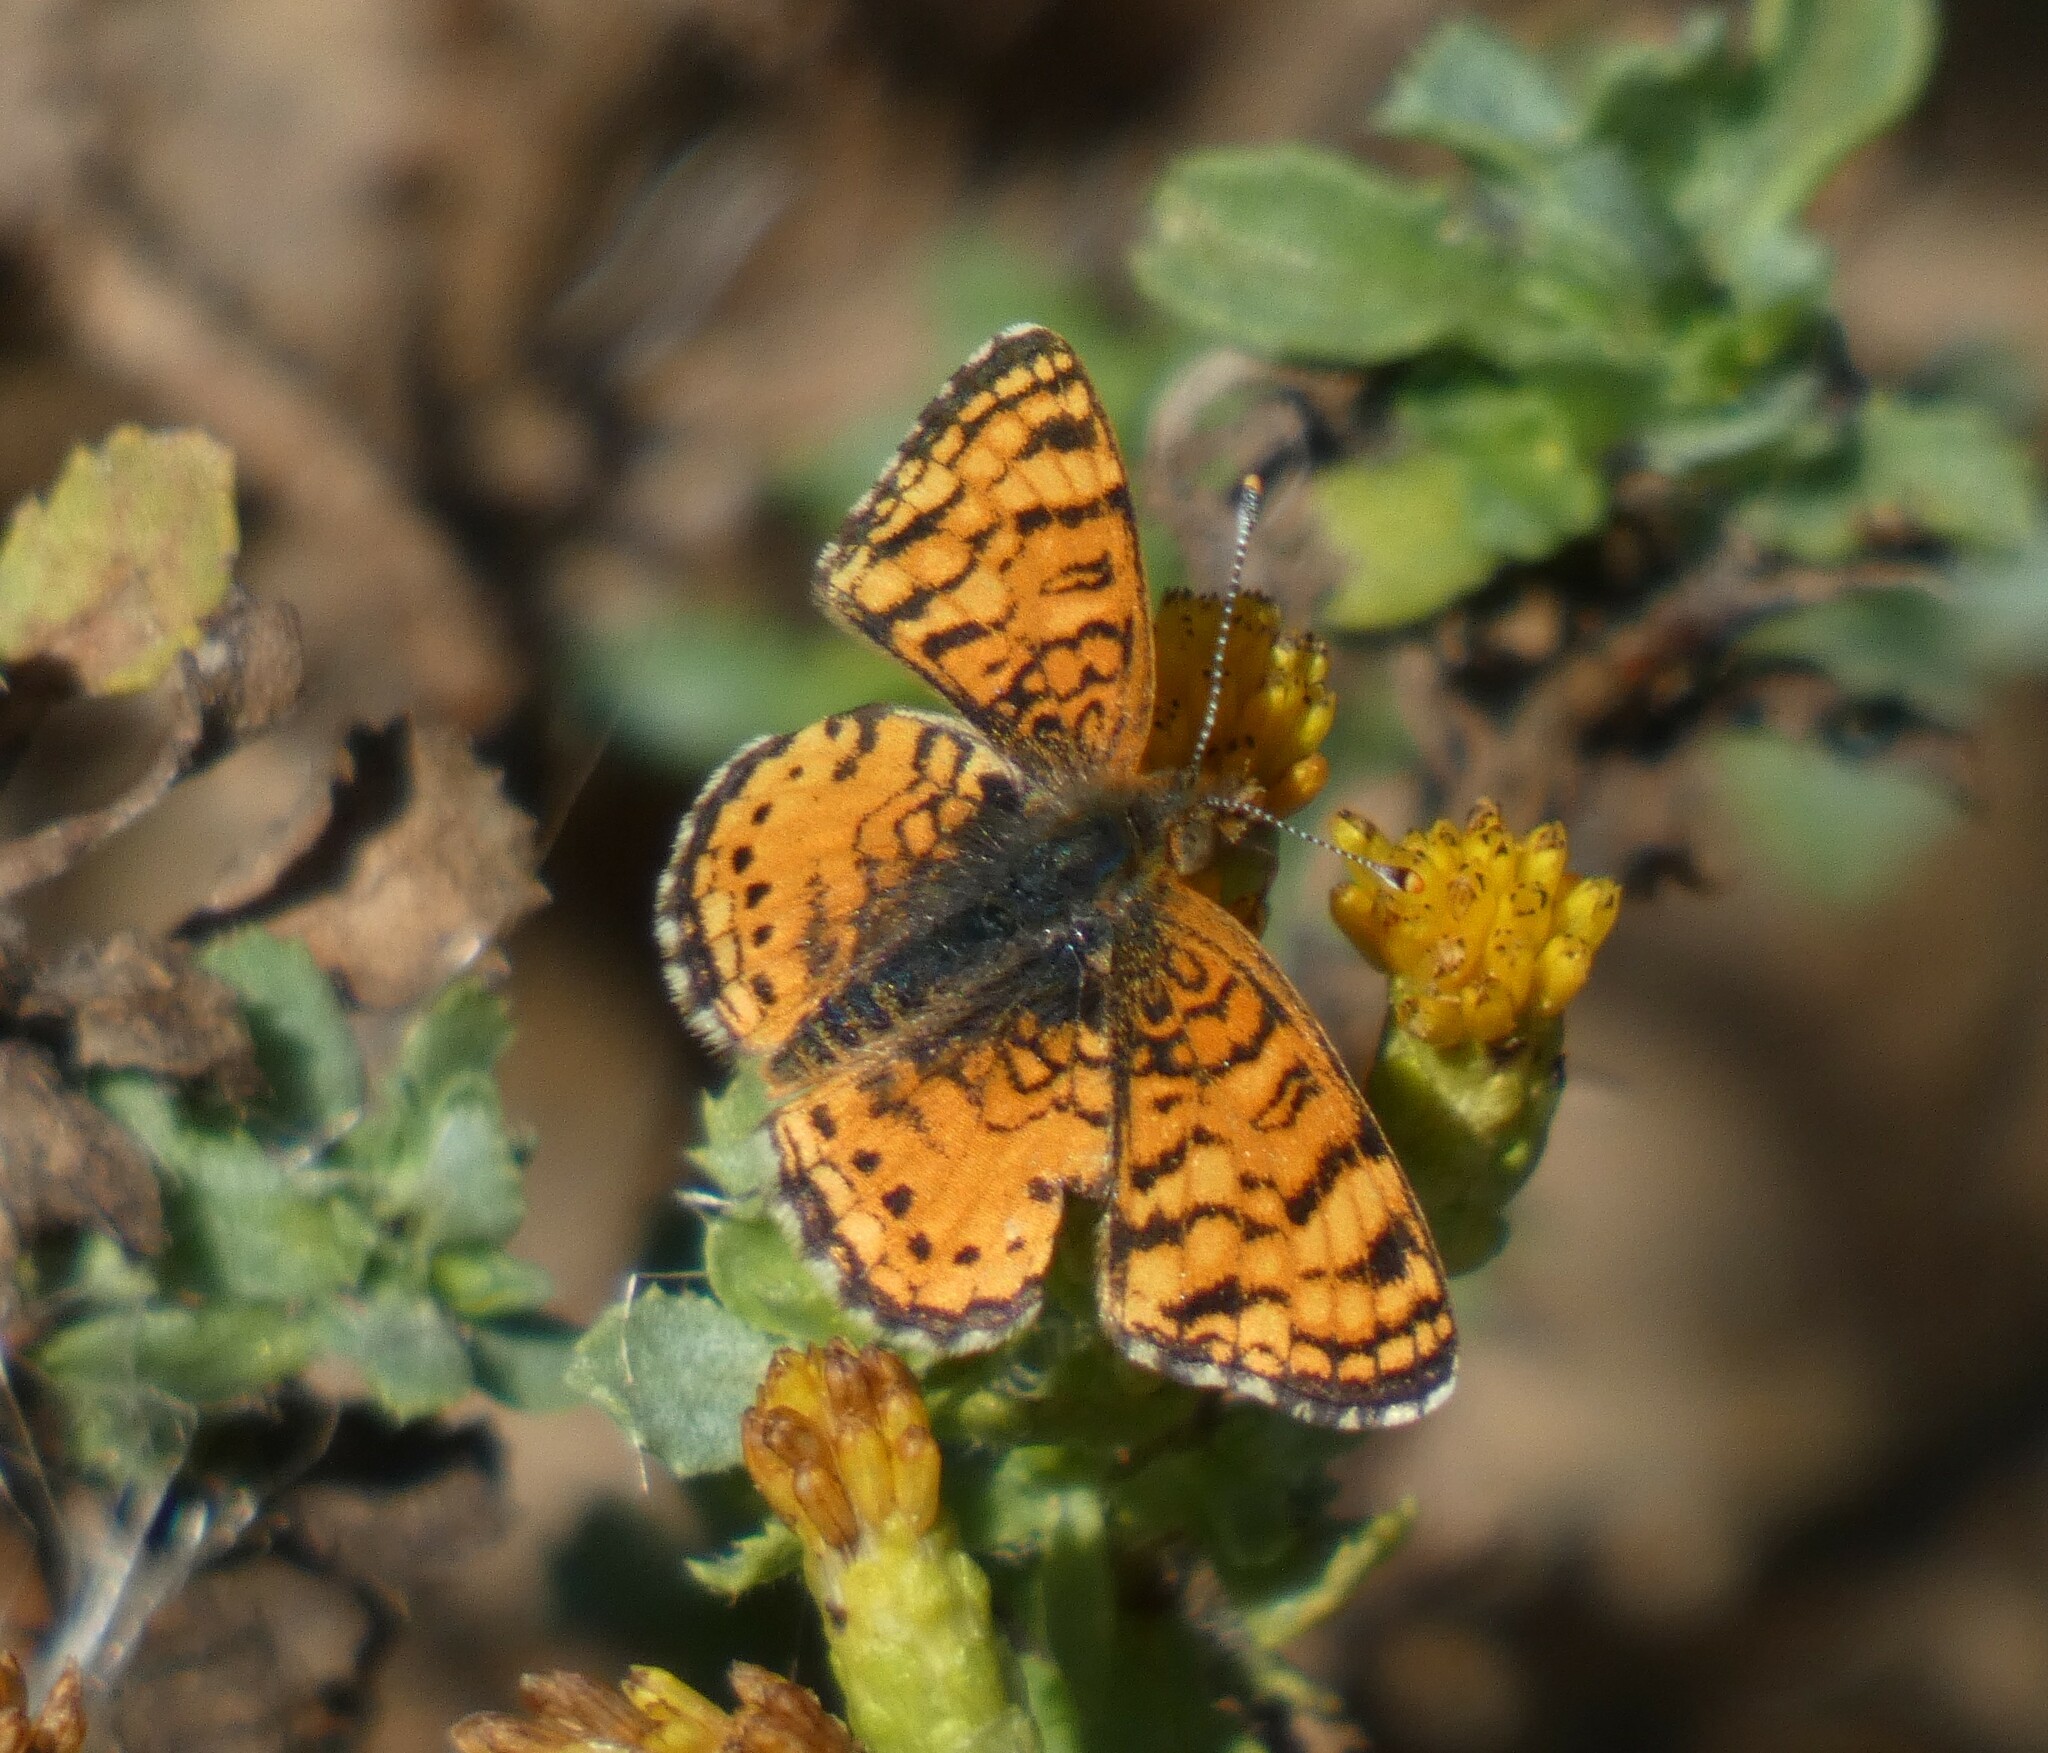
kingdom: Animalia
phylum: Arthropoda
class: Insecta
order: Lepidoptera
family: Nymphalidae
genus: Eresia
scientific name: Eresia aveyrona
